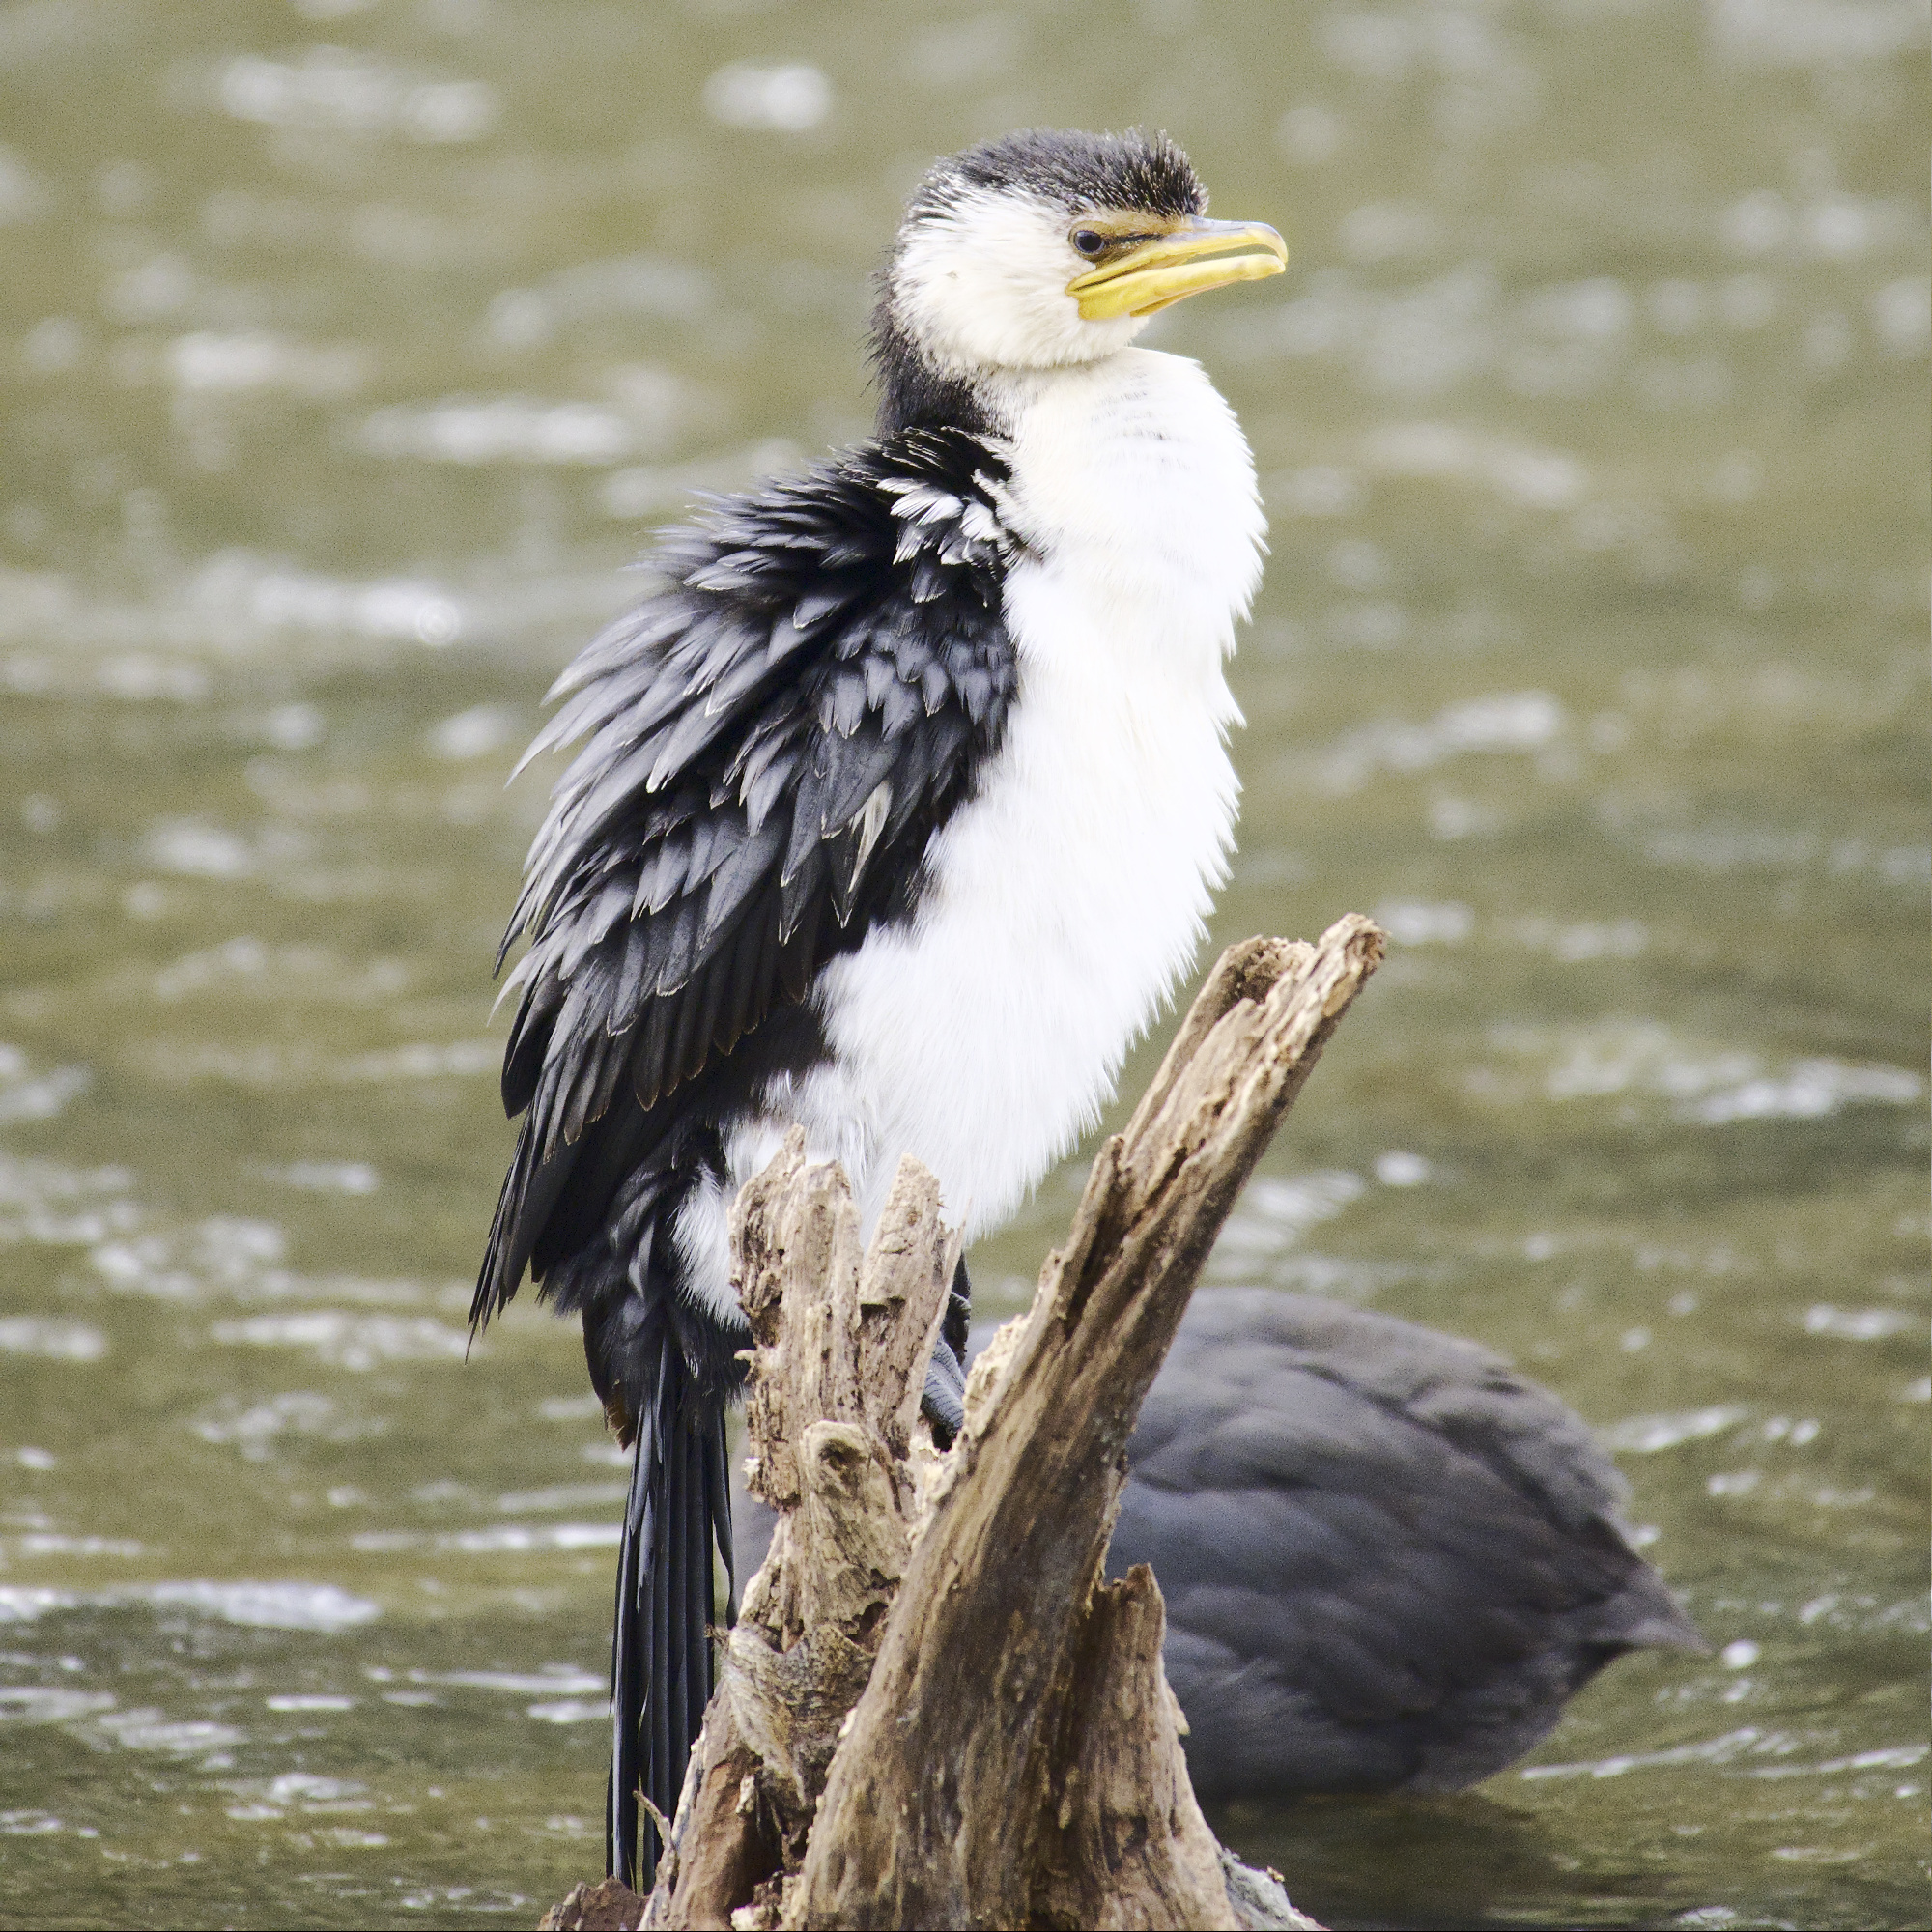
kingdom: Animalia
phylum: Chordata
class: Aves
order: Suliformes
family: Phalacrocoracidae
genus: Microcarbo
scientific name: Microcarbo melanoleucos
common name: Little pied cormorant
